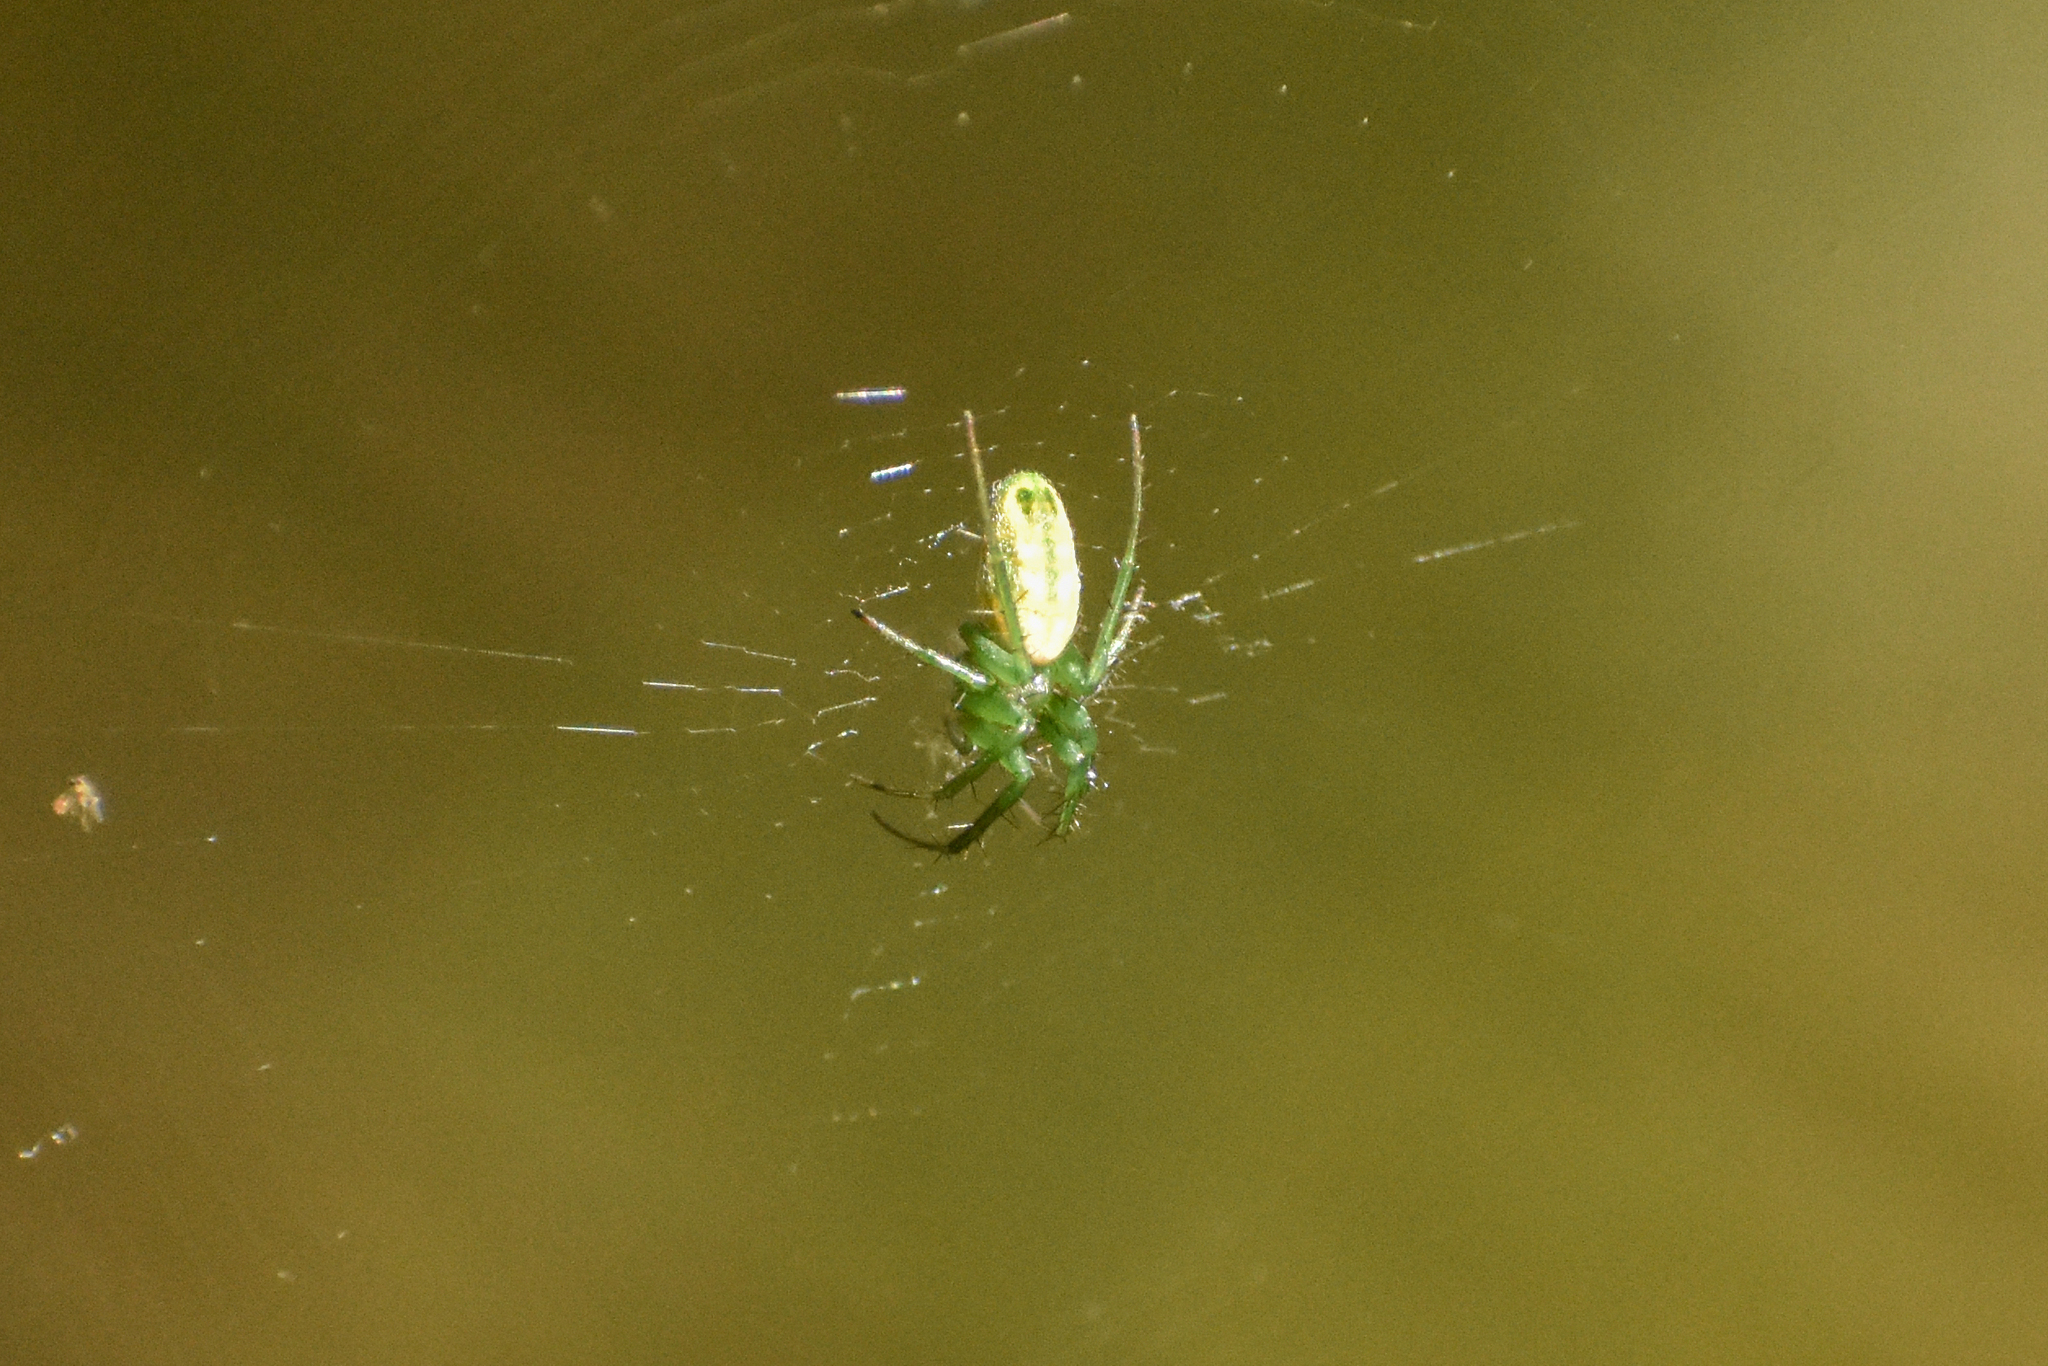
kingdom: Animalia
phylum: Arthropoda
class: Arachnida
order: Araneae
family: Araneidae
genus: Mangora
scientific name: Mangora lactea
